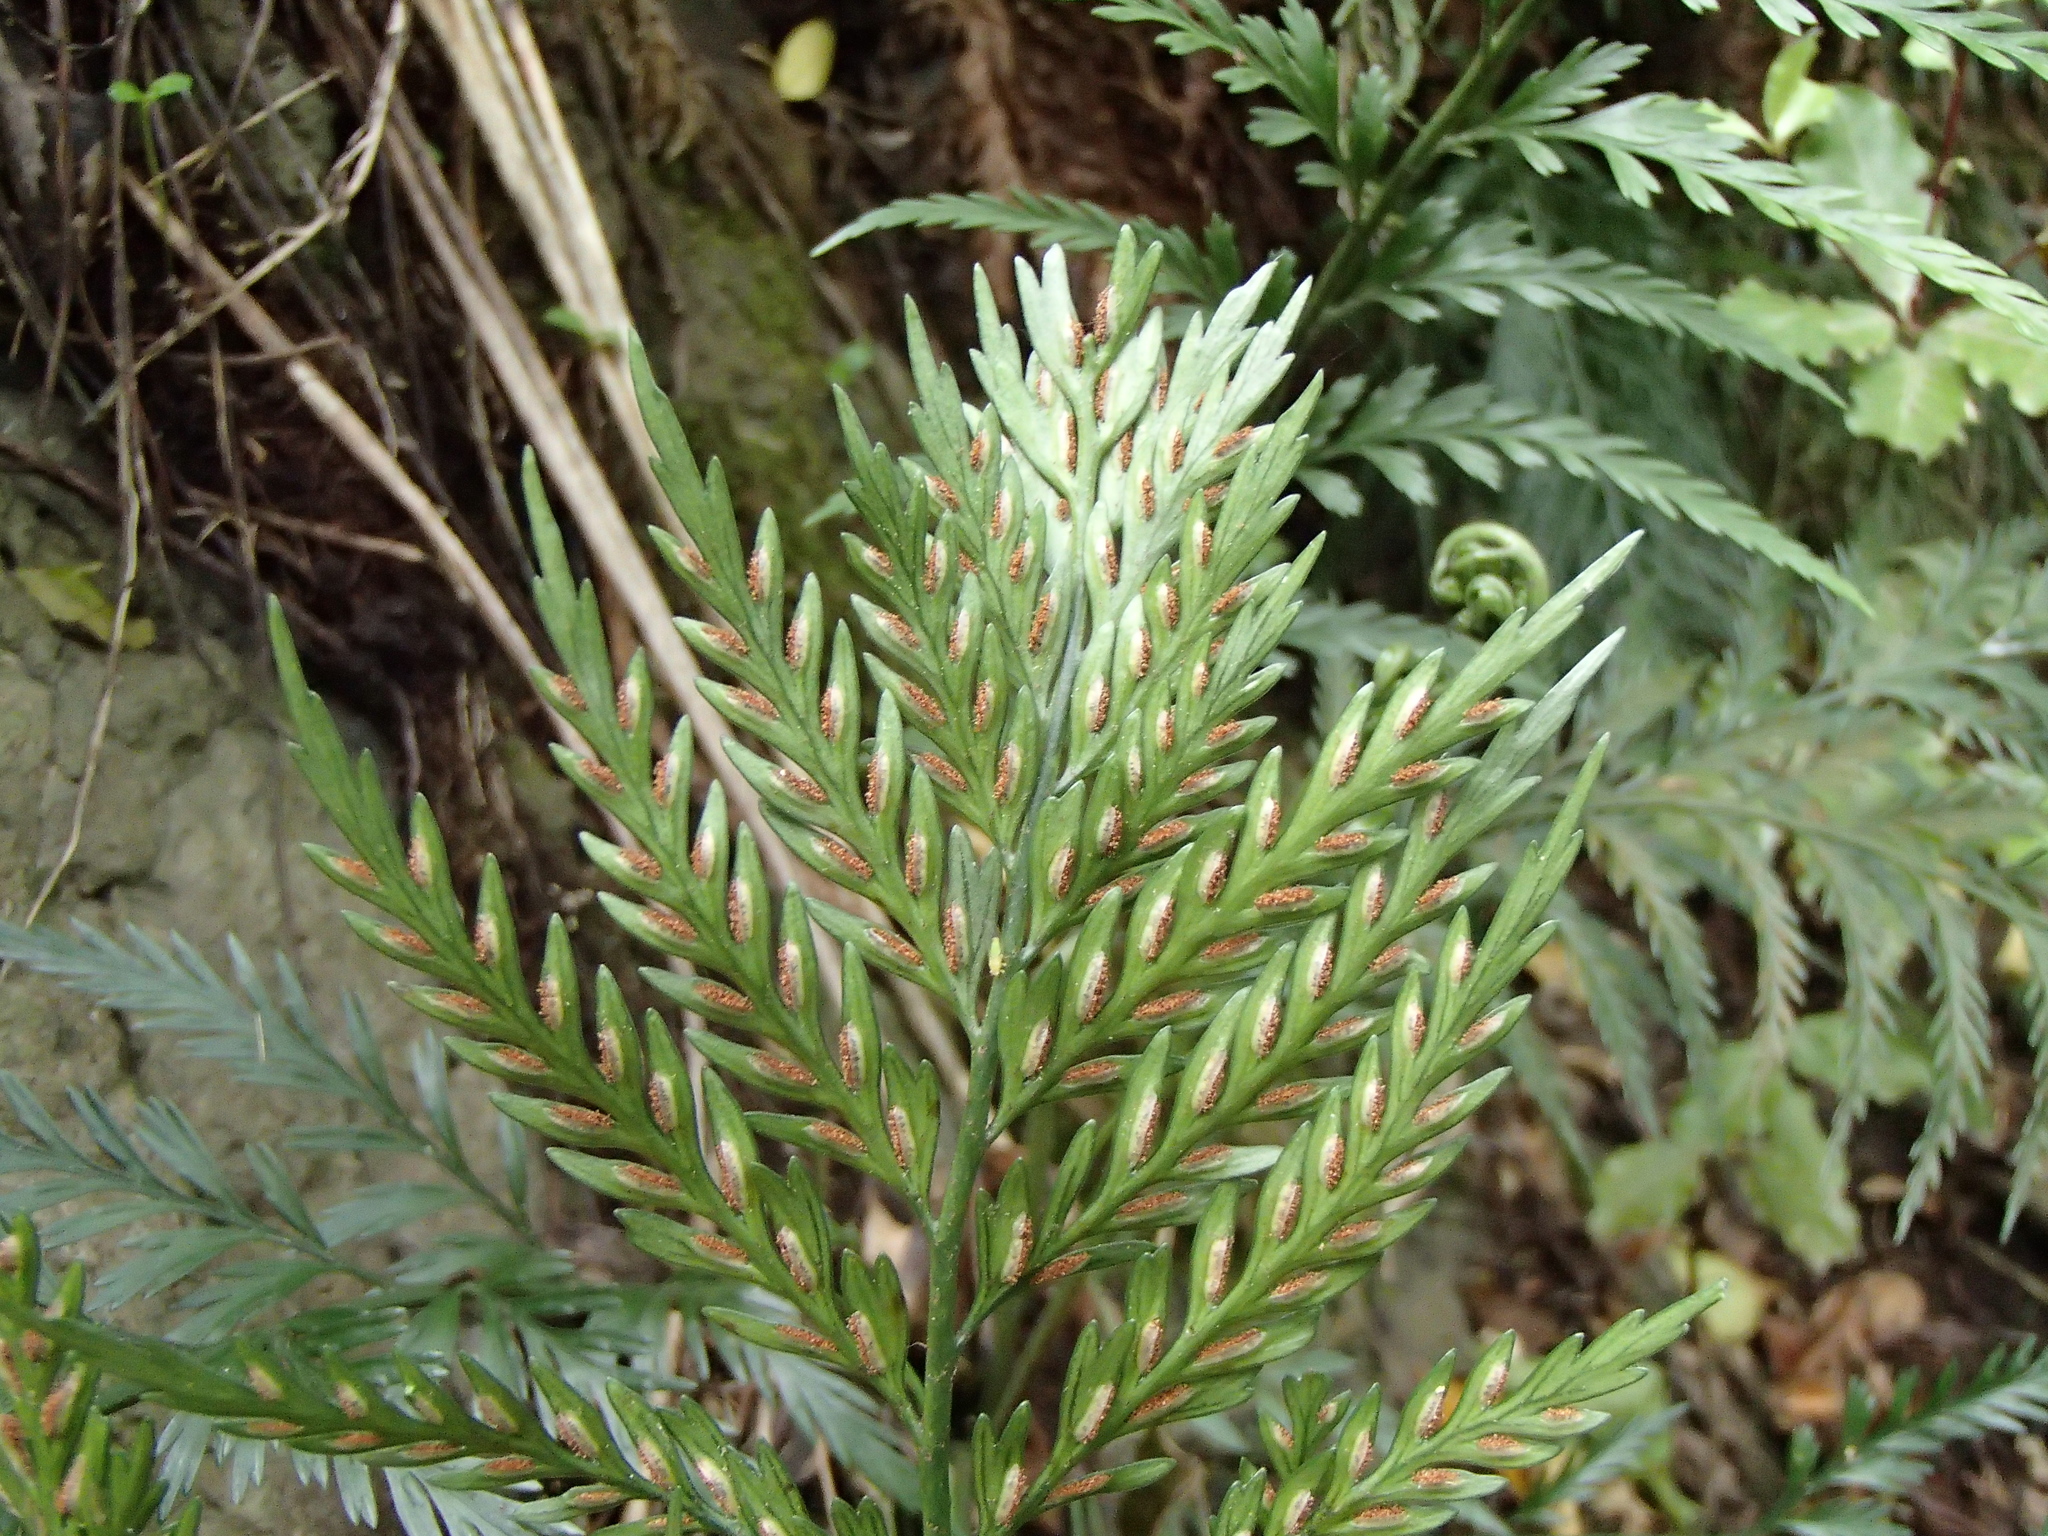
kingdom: Plantae
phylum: Tracheophyta
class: Polypodiopsida
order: Polypodiales
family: Aspleniaceae
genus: Asplenium
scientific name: Asplenium appendiculatum
